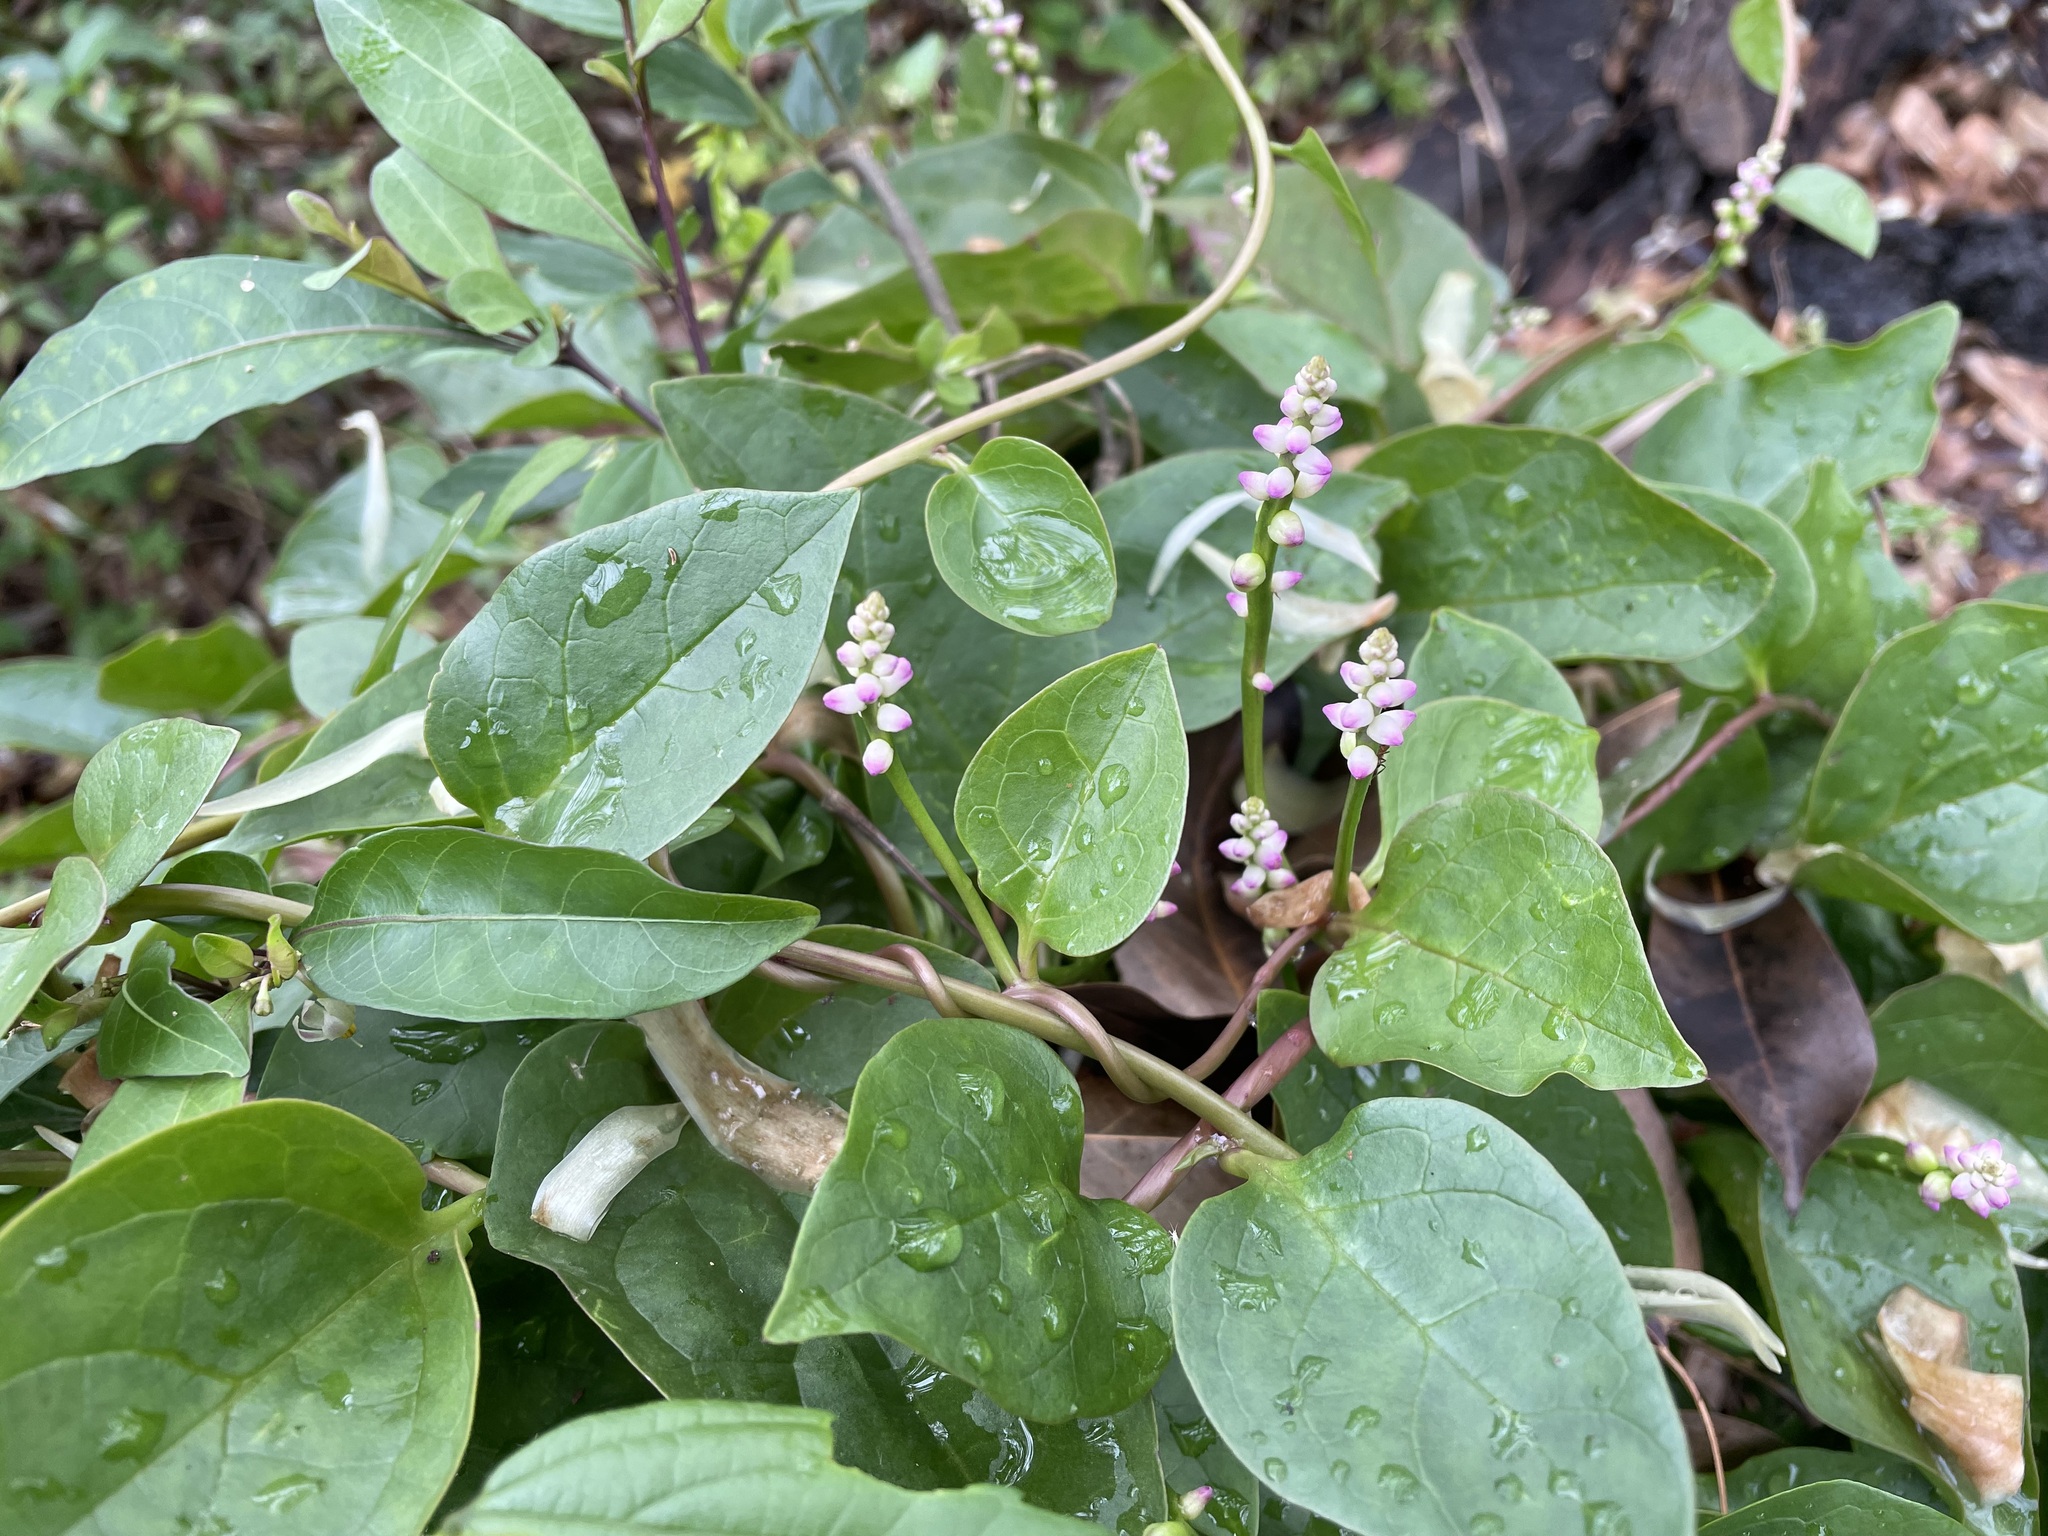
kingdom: Plantae
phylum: Tracheophyta
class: Magnoliopsida
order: Caryophyllales
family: Basellaceae
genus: Basella
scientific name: Basella alba
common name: Indian spinach
